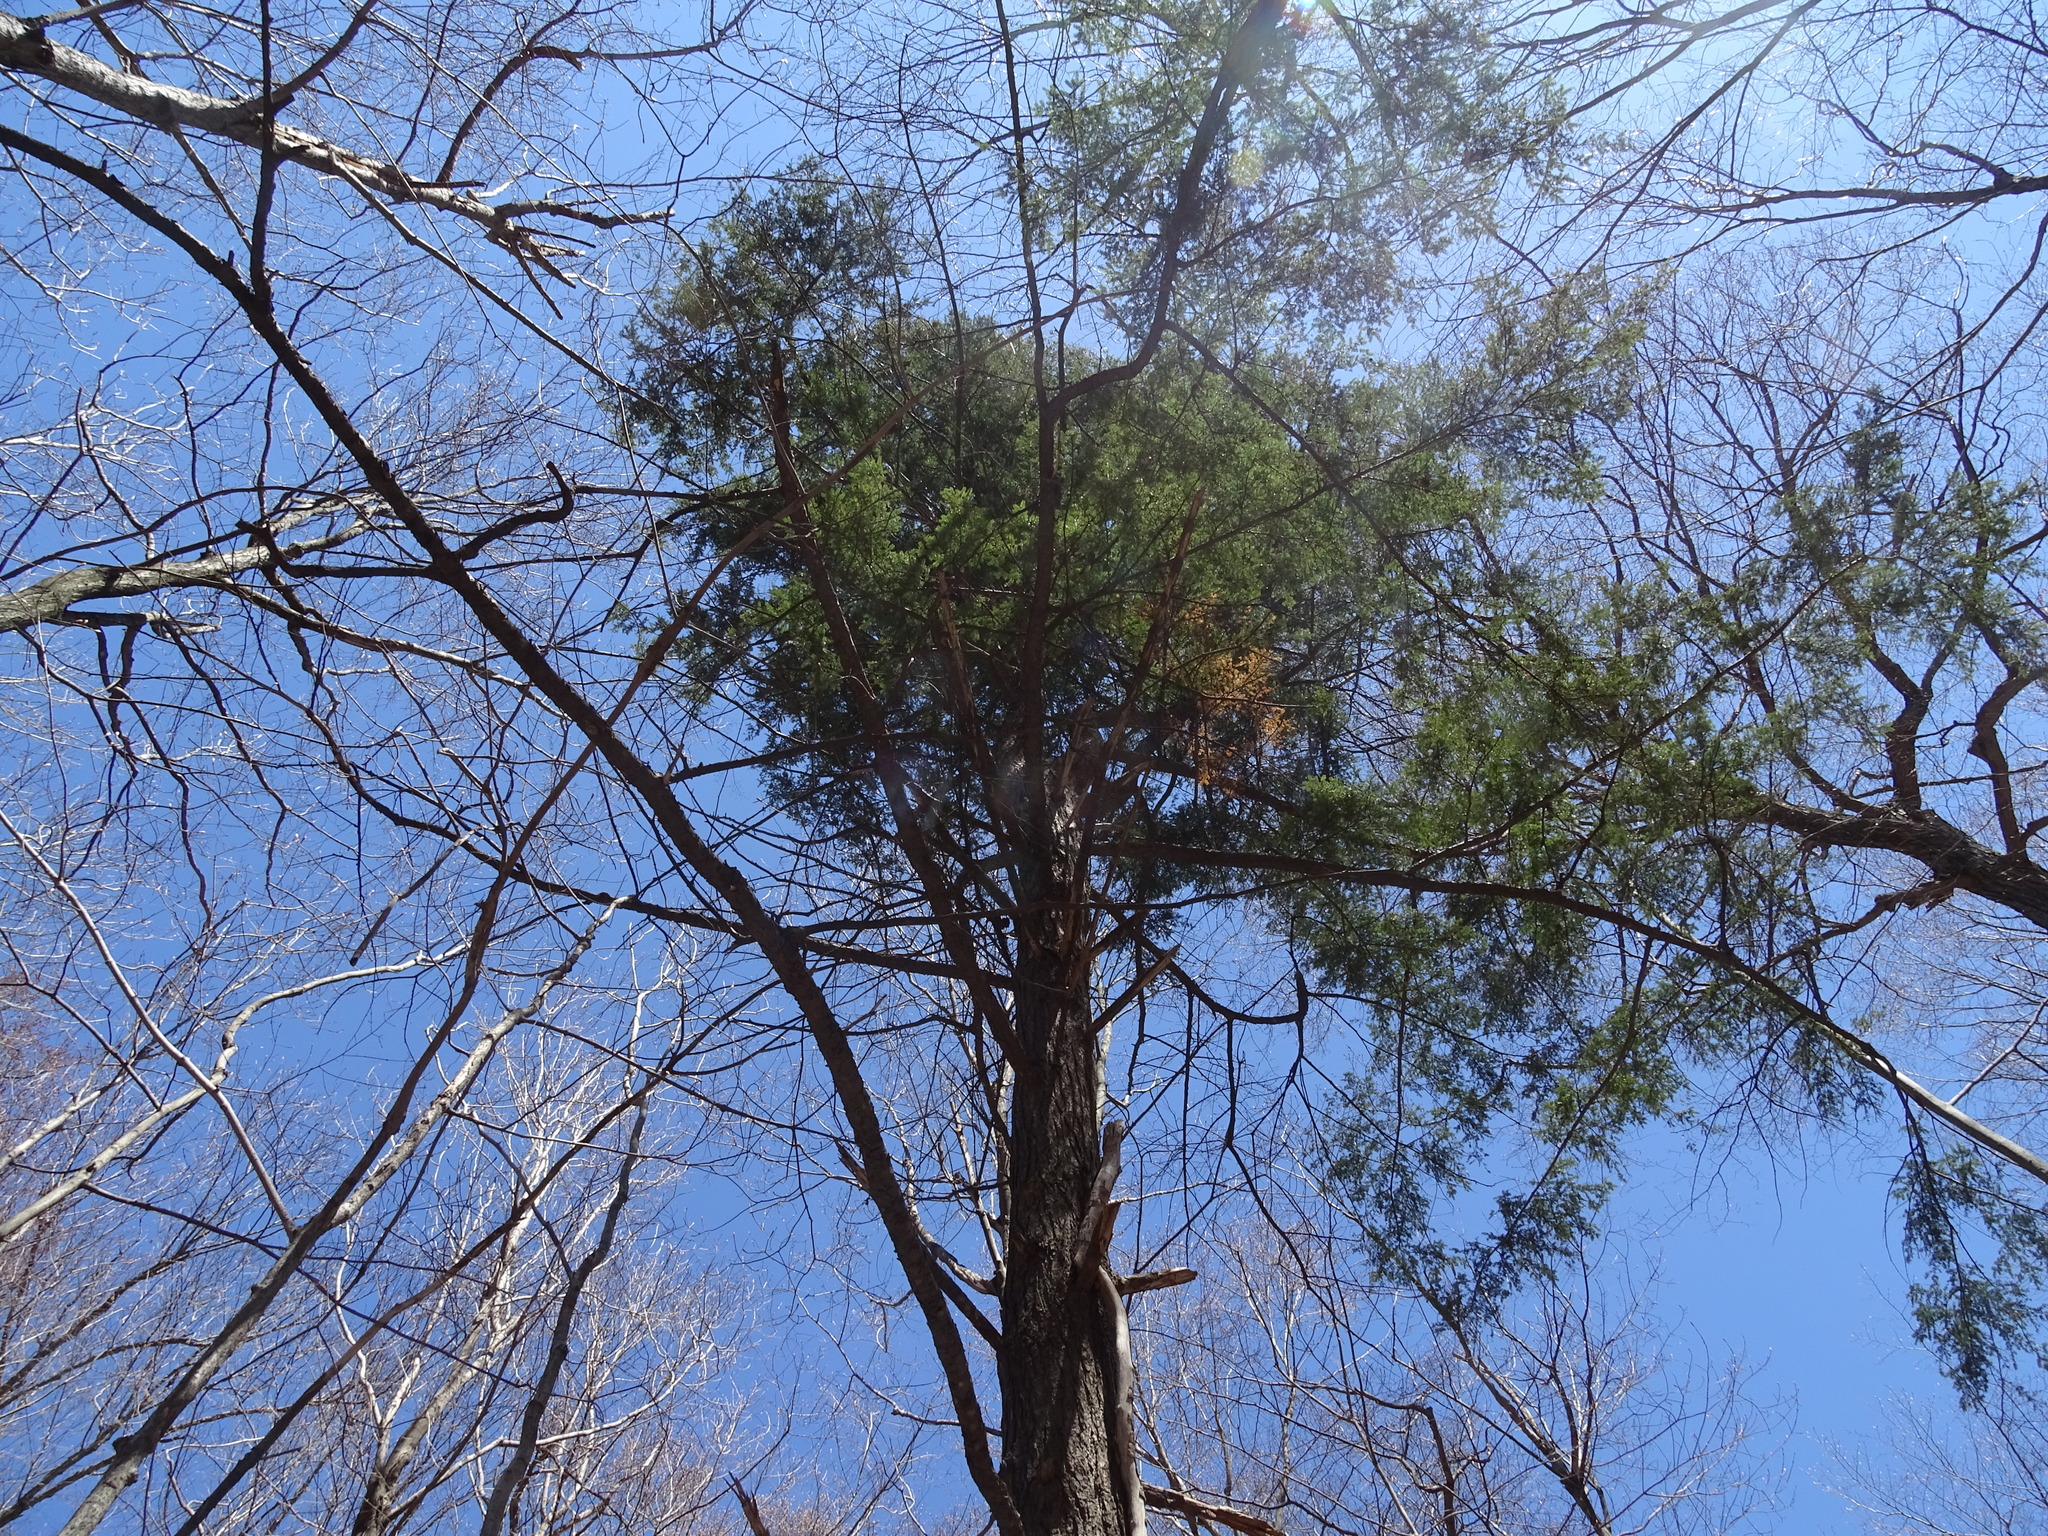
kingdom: Plantae
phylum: Tracheophyta
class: Pinopsida
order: Pinales
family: Pinaceae
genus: Tsuga
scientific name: Tsuga canadensis
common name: Eastern hemlock
